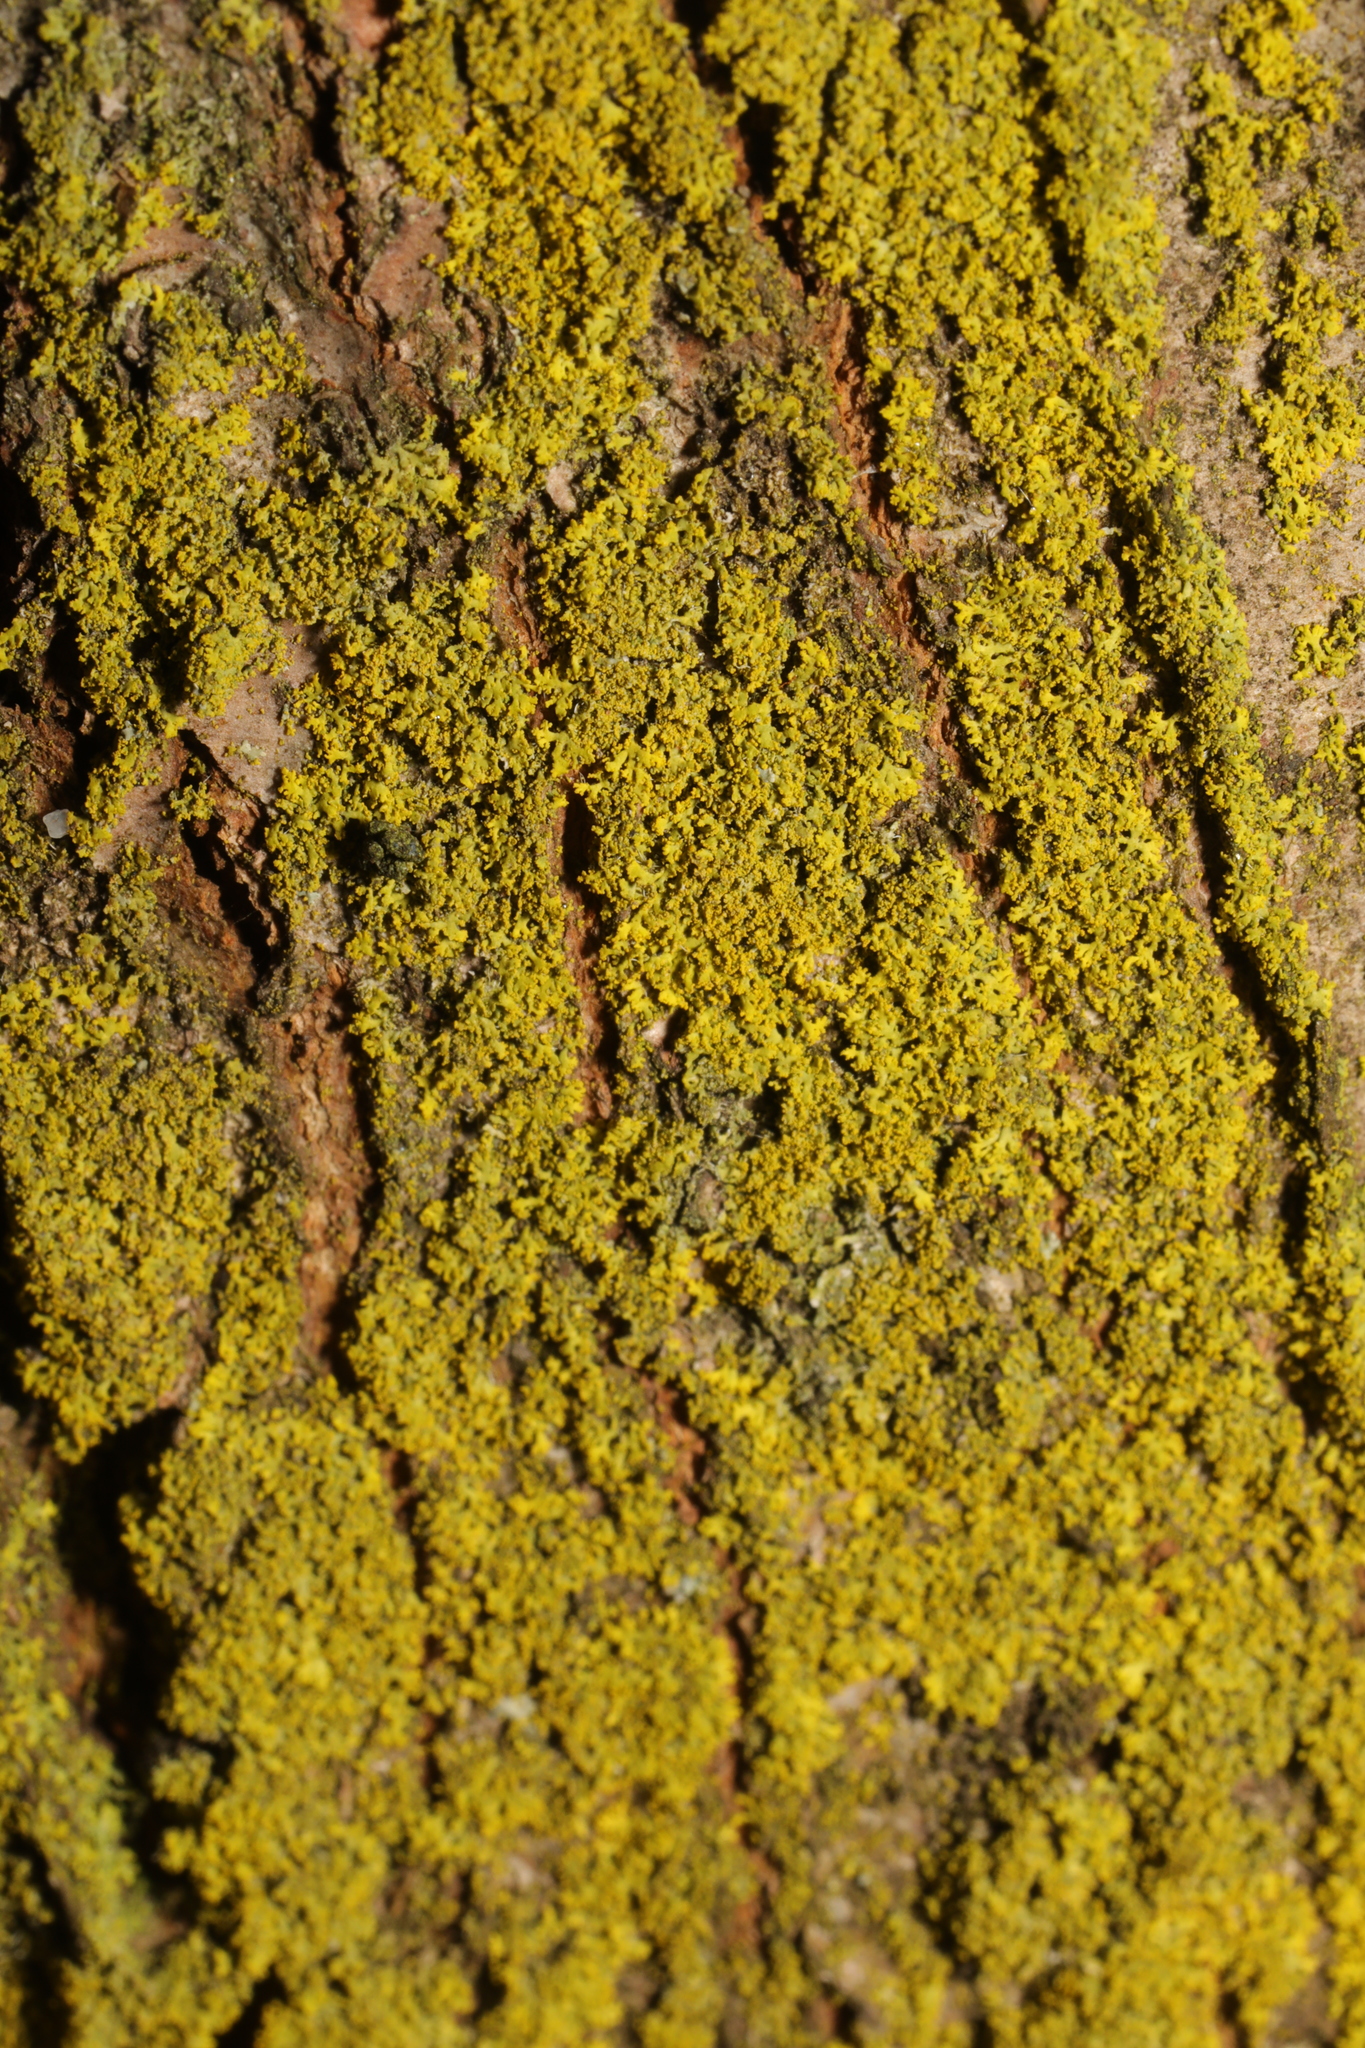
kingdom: Fungi
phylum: Ascomycota
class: Candelariomycetes
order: Candelariales
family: Candelariaceae
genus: Candelaria
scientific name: Candelaria concolor
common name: Candleflame lichen
